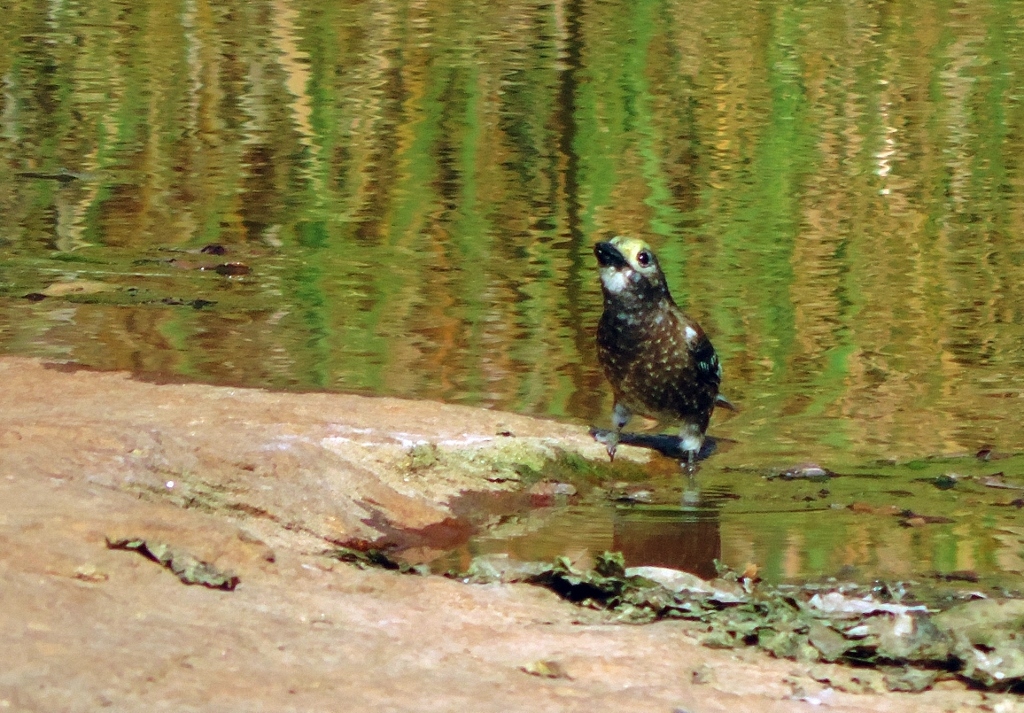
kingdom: Animalia
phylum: Chordata
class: Aves
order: Piciformes
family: Lybiidae
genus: Stactolaema
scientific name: Stactolaema whytii
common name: Whyte's barbet
